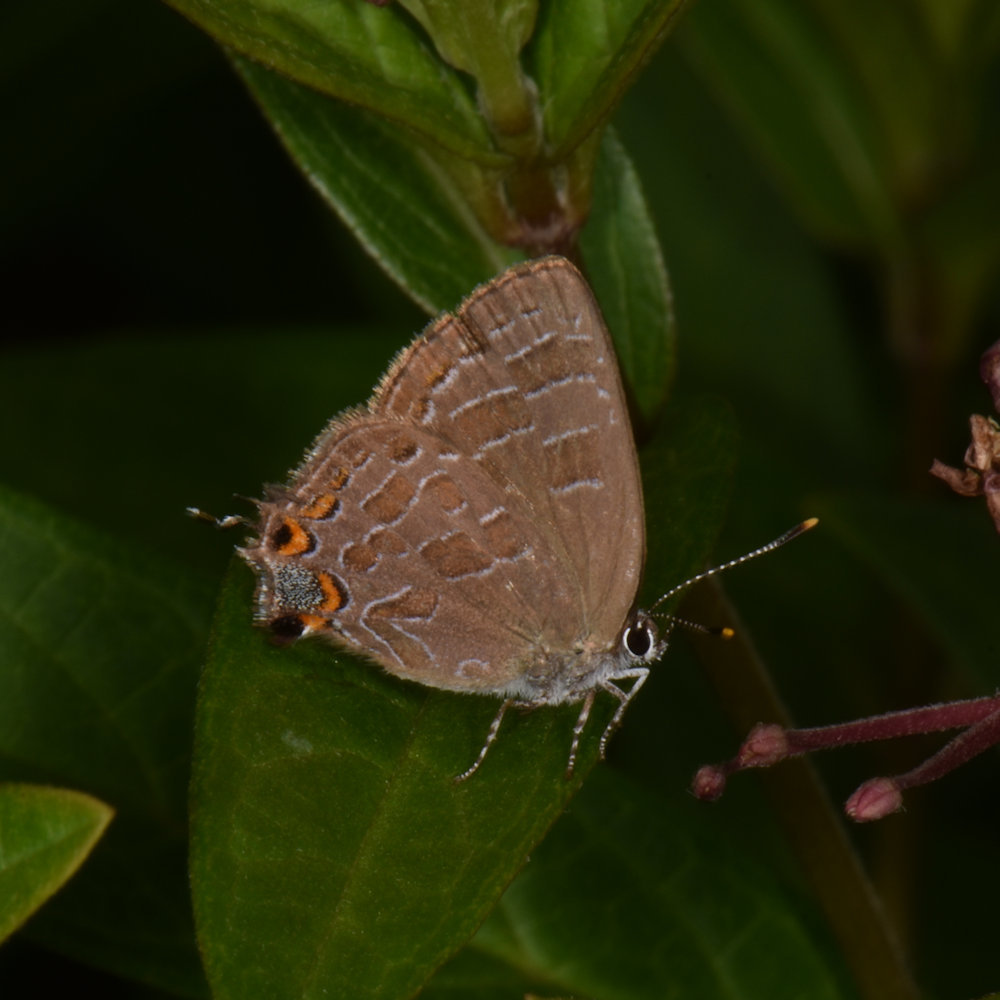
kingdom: Animalia
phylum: Arthropoda
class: Insecta
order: Lepidoptera
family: Lycaenidae
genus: Satyrium
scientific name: Satyrium liparops
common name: Striped hairstreak
